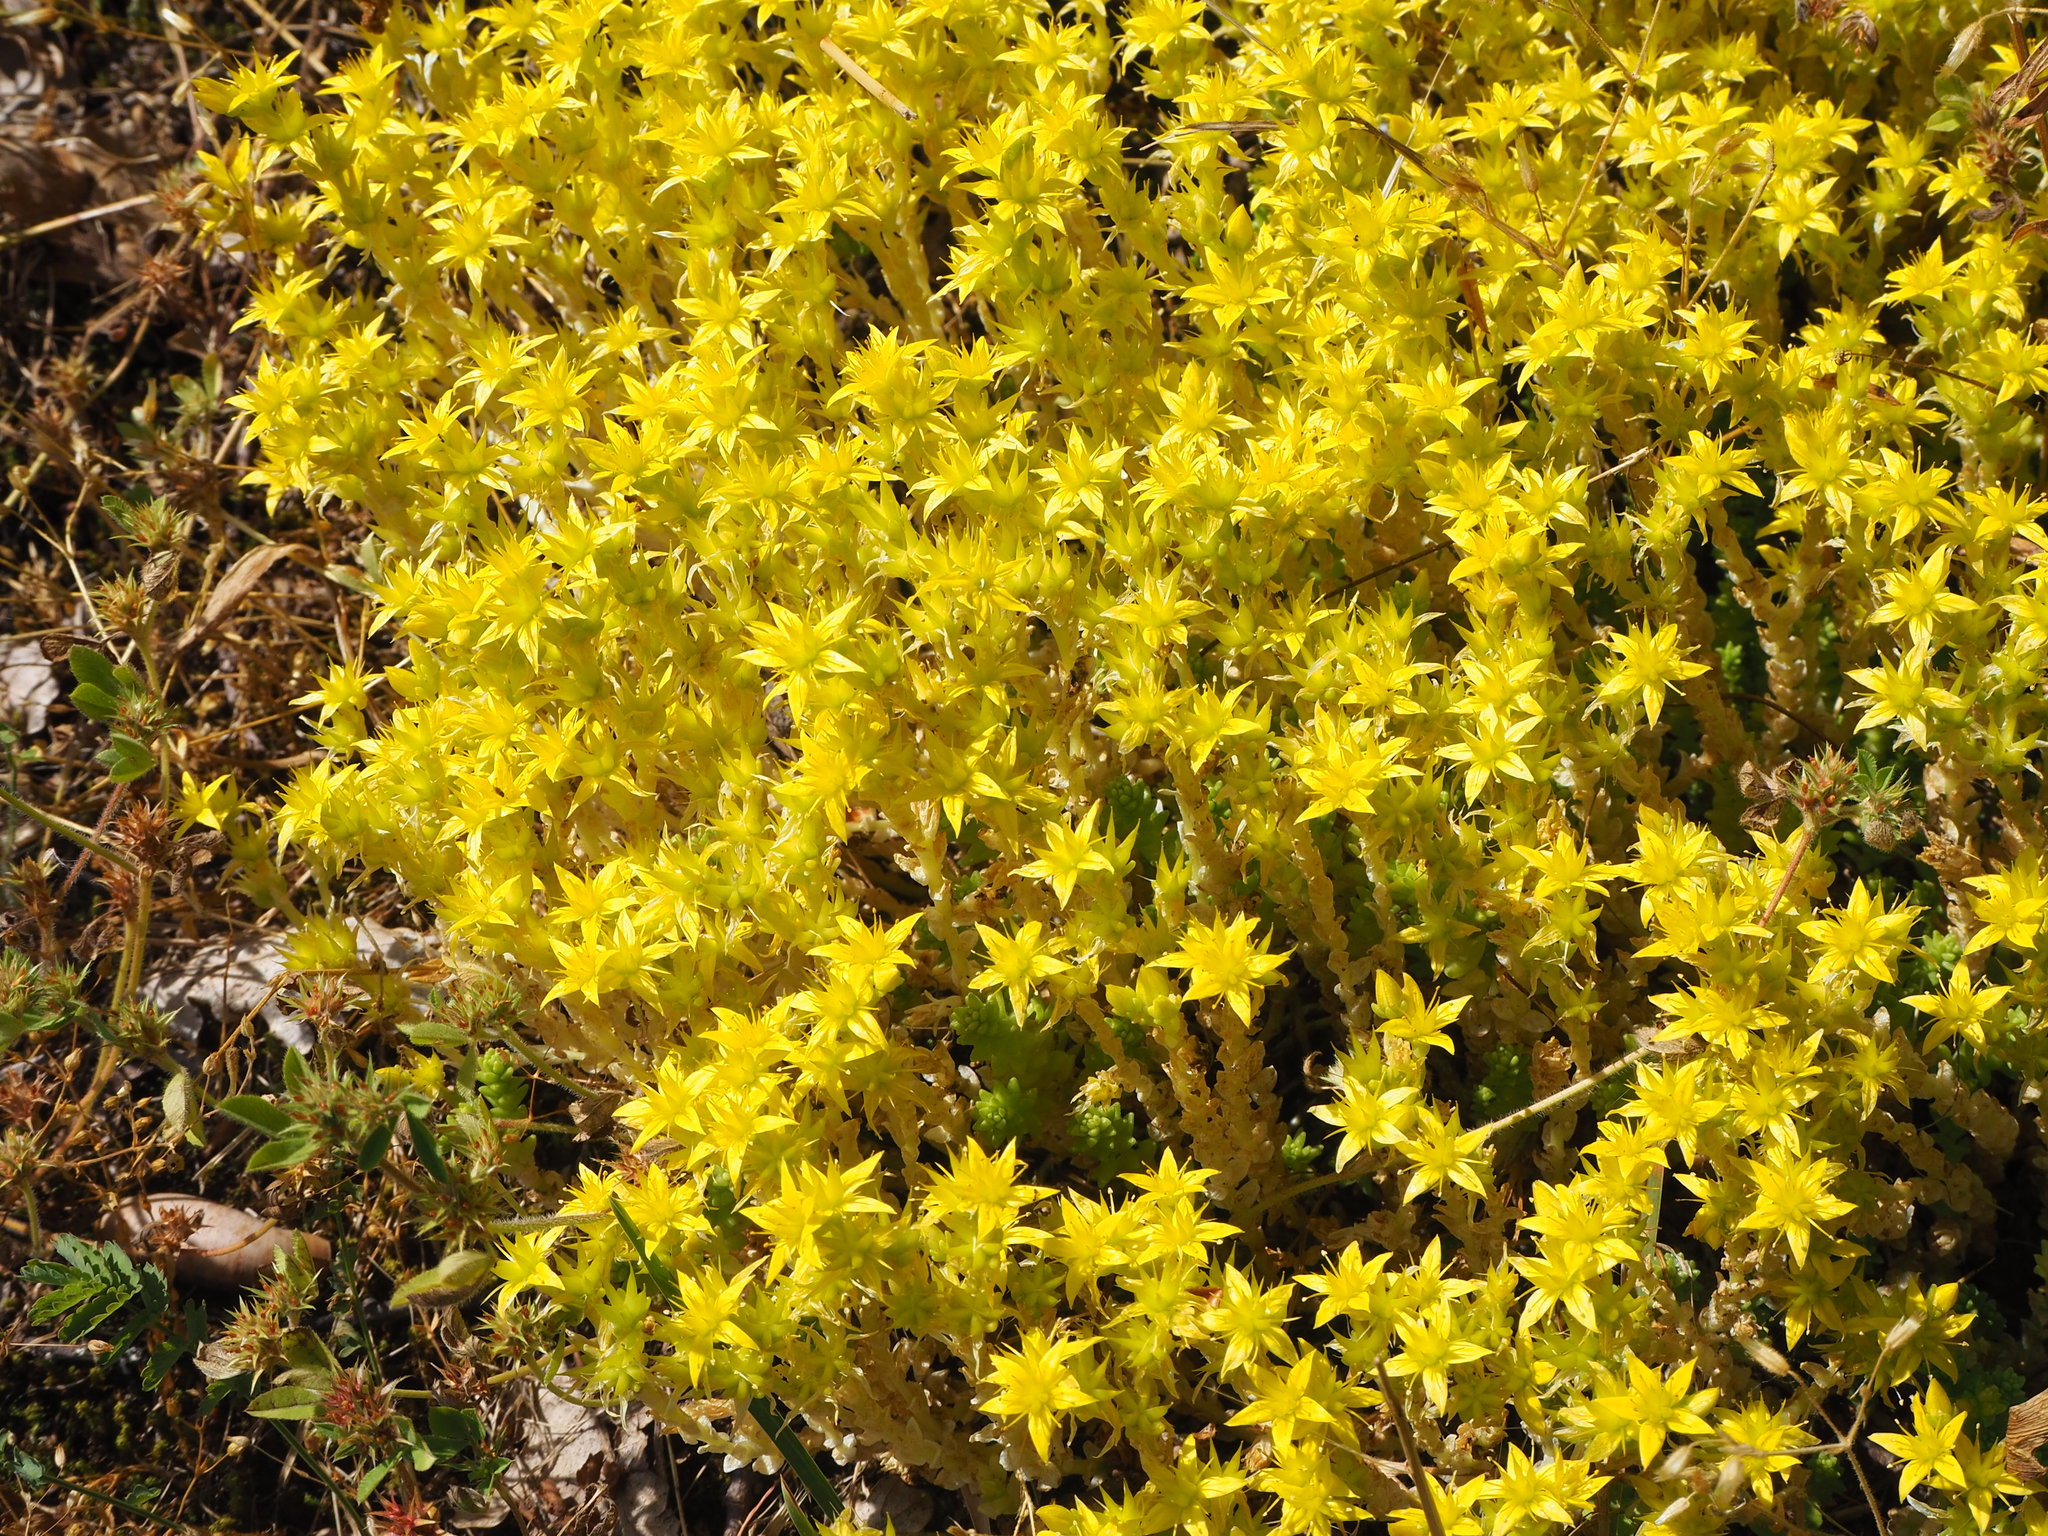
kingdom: Plantae
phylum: Tracheophyta
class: Magnoliopsida
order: Saxifragales
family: Crassulaceae
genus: Sedum
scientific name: Sedum acre
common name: Biting stonecrop
